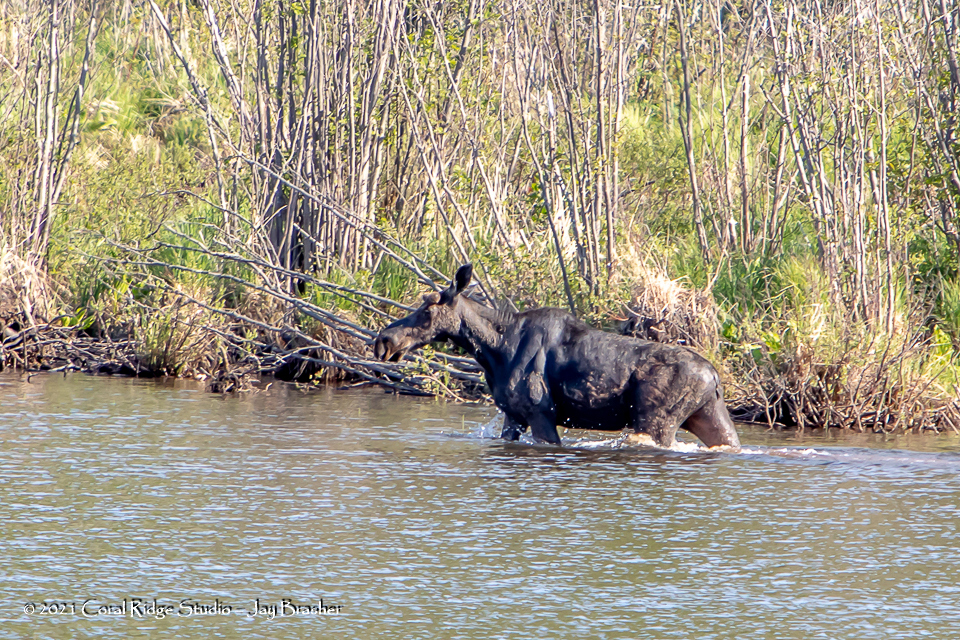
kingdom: Animalia
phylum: Chordata
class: Mammalia
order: Artiodactyla
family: Cervidae
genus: Alces
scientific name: Alces alces
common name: Moose
